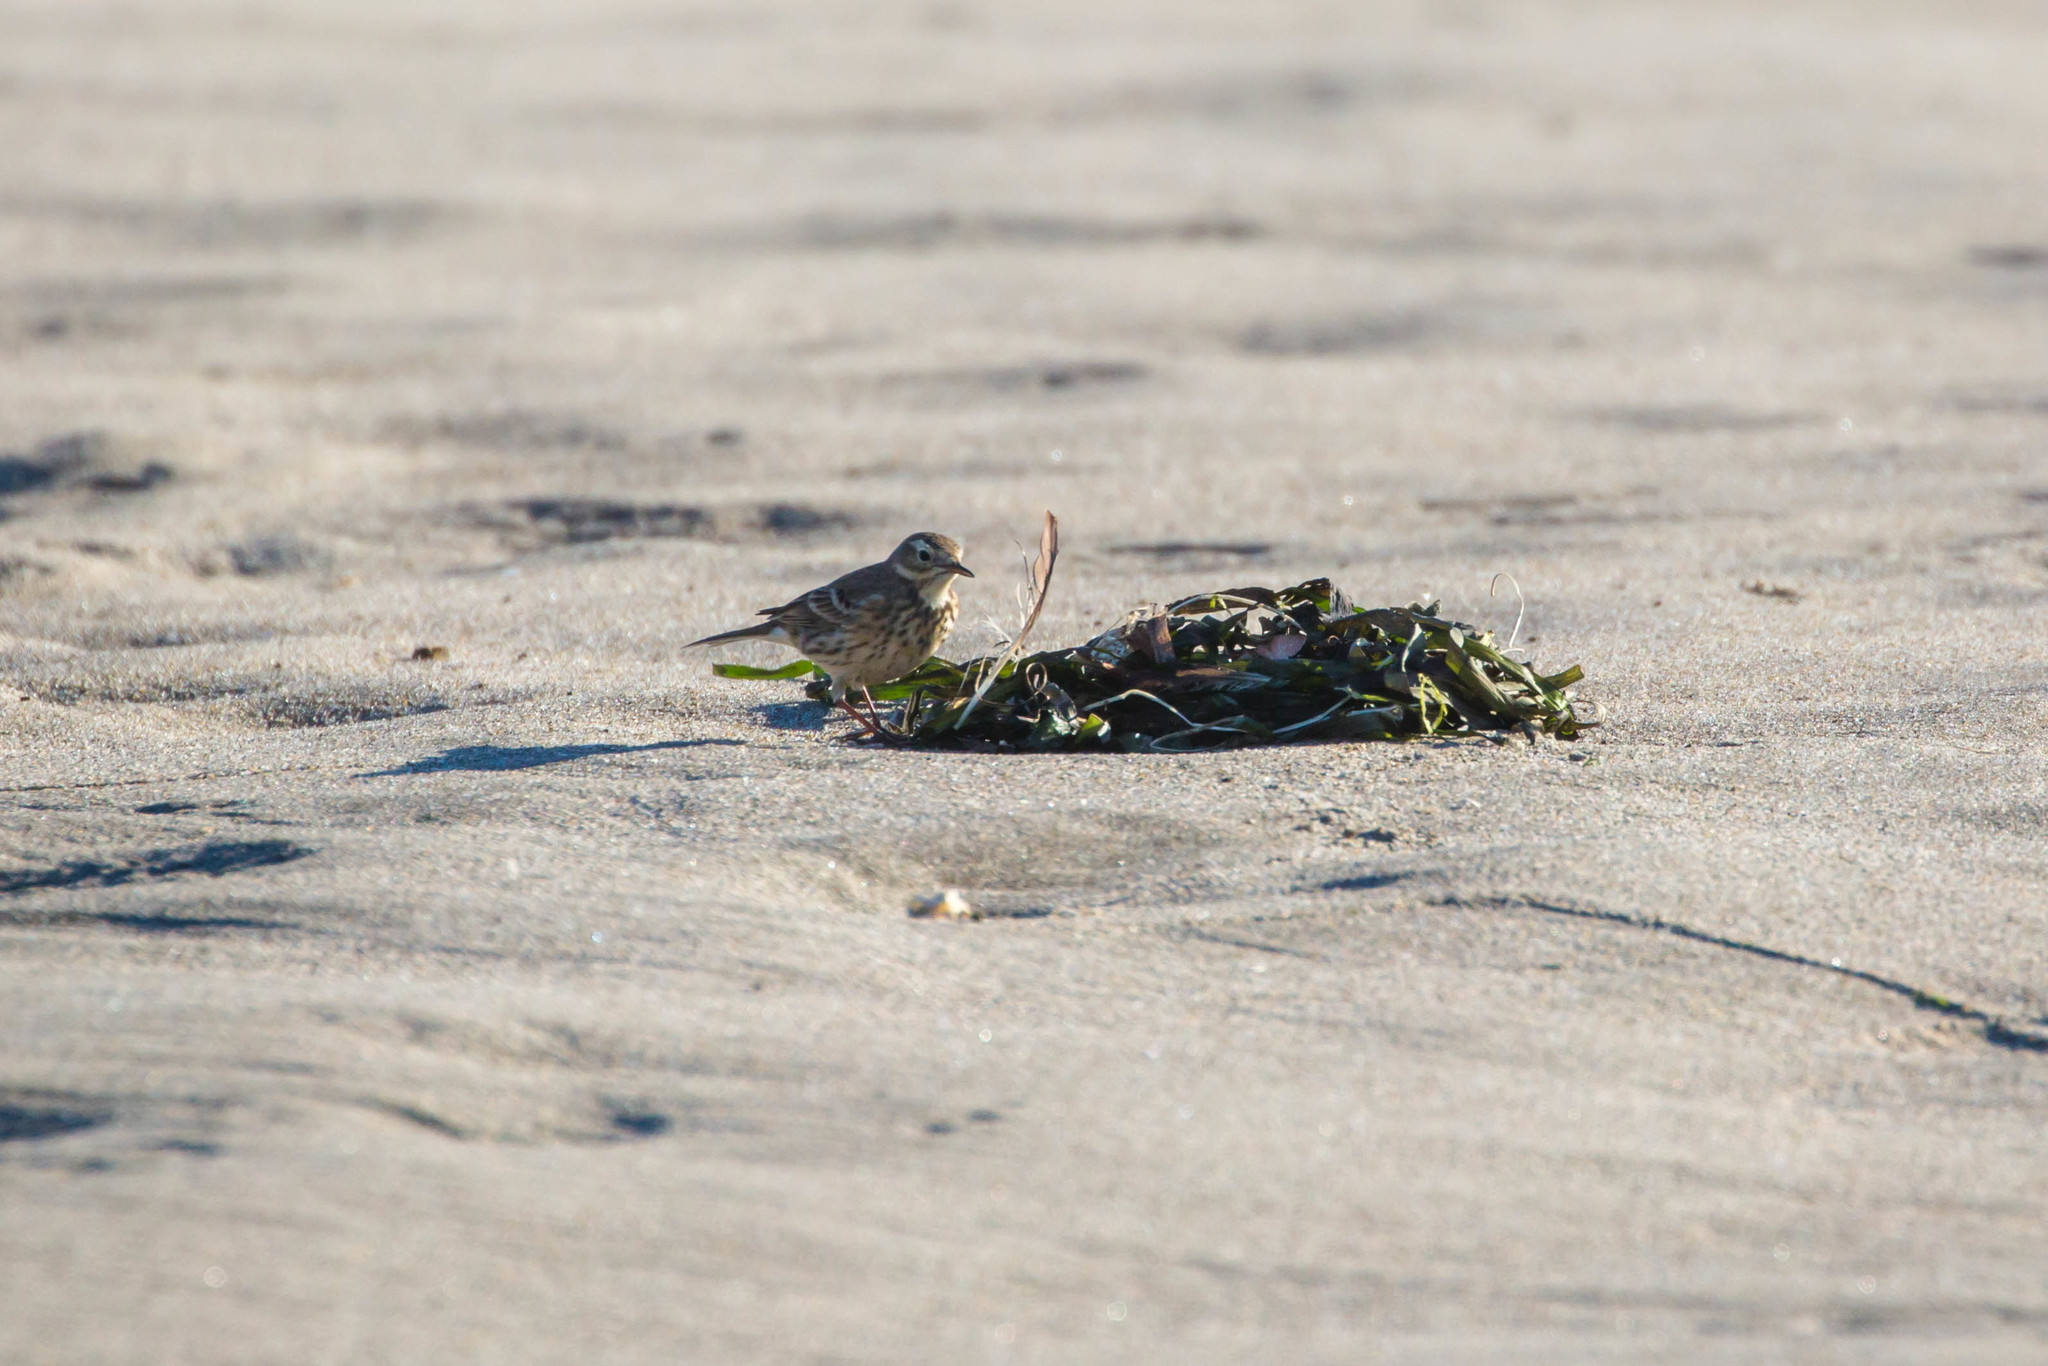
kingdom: Animalia
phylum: Chordata
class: Aves
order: Passeriformes
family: Motacillidae
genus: Anthus
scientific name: Anthus rubescens
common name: Buff-bellied pipit
